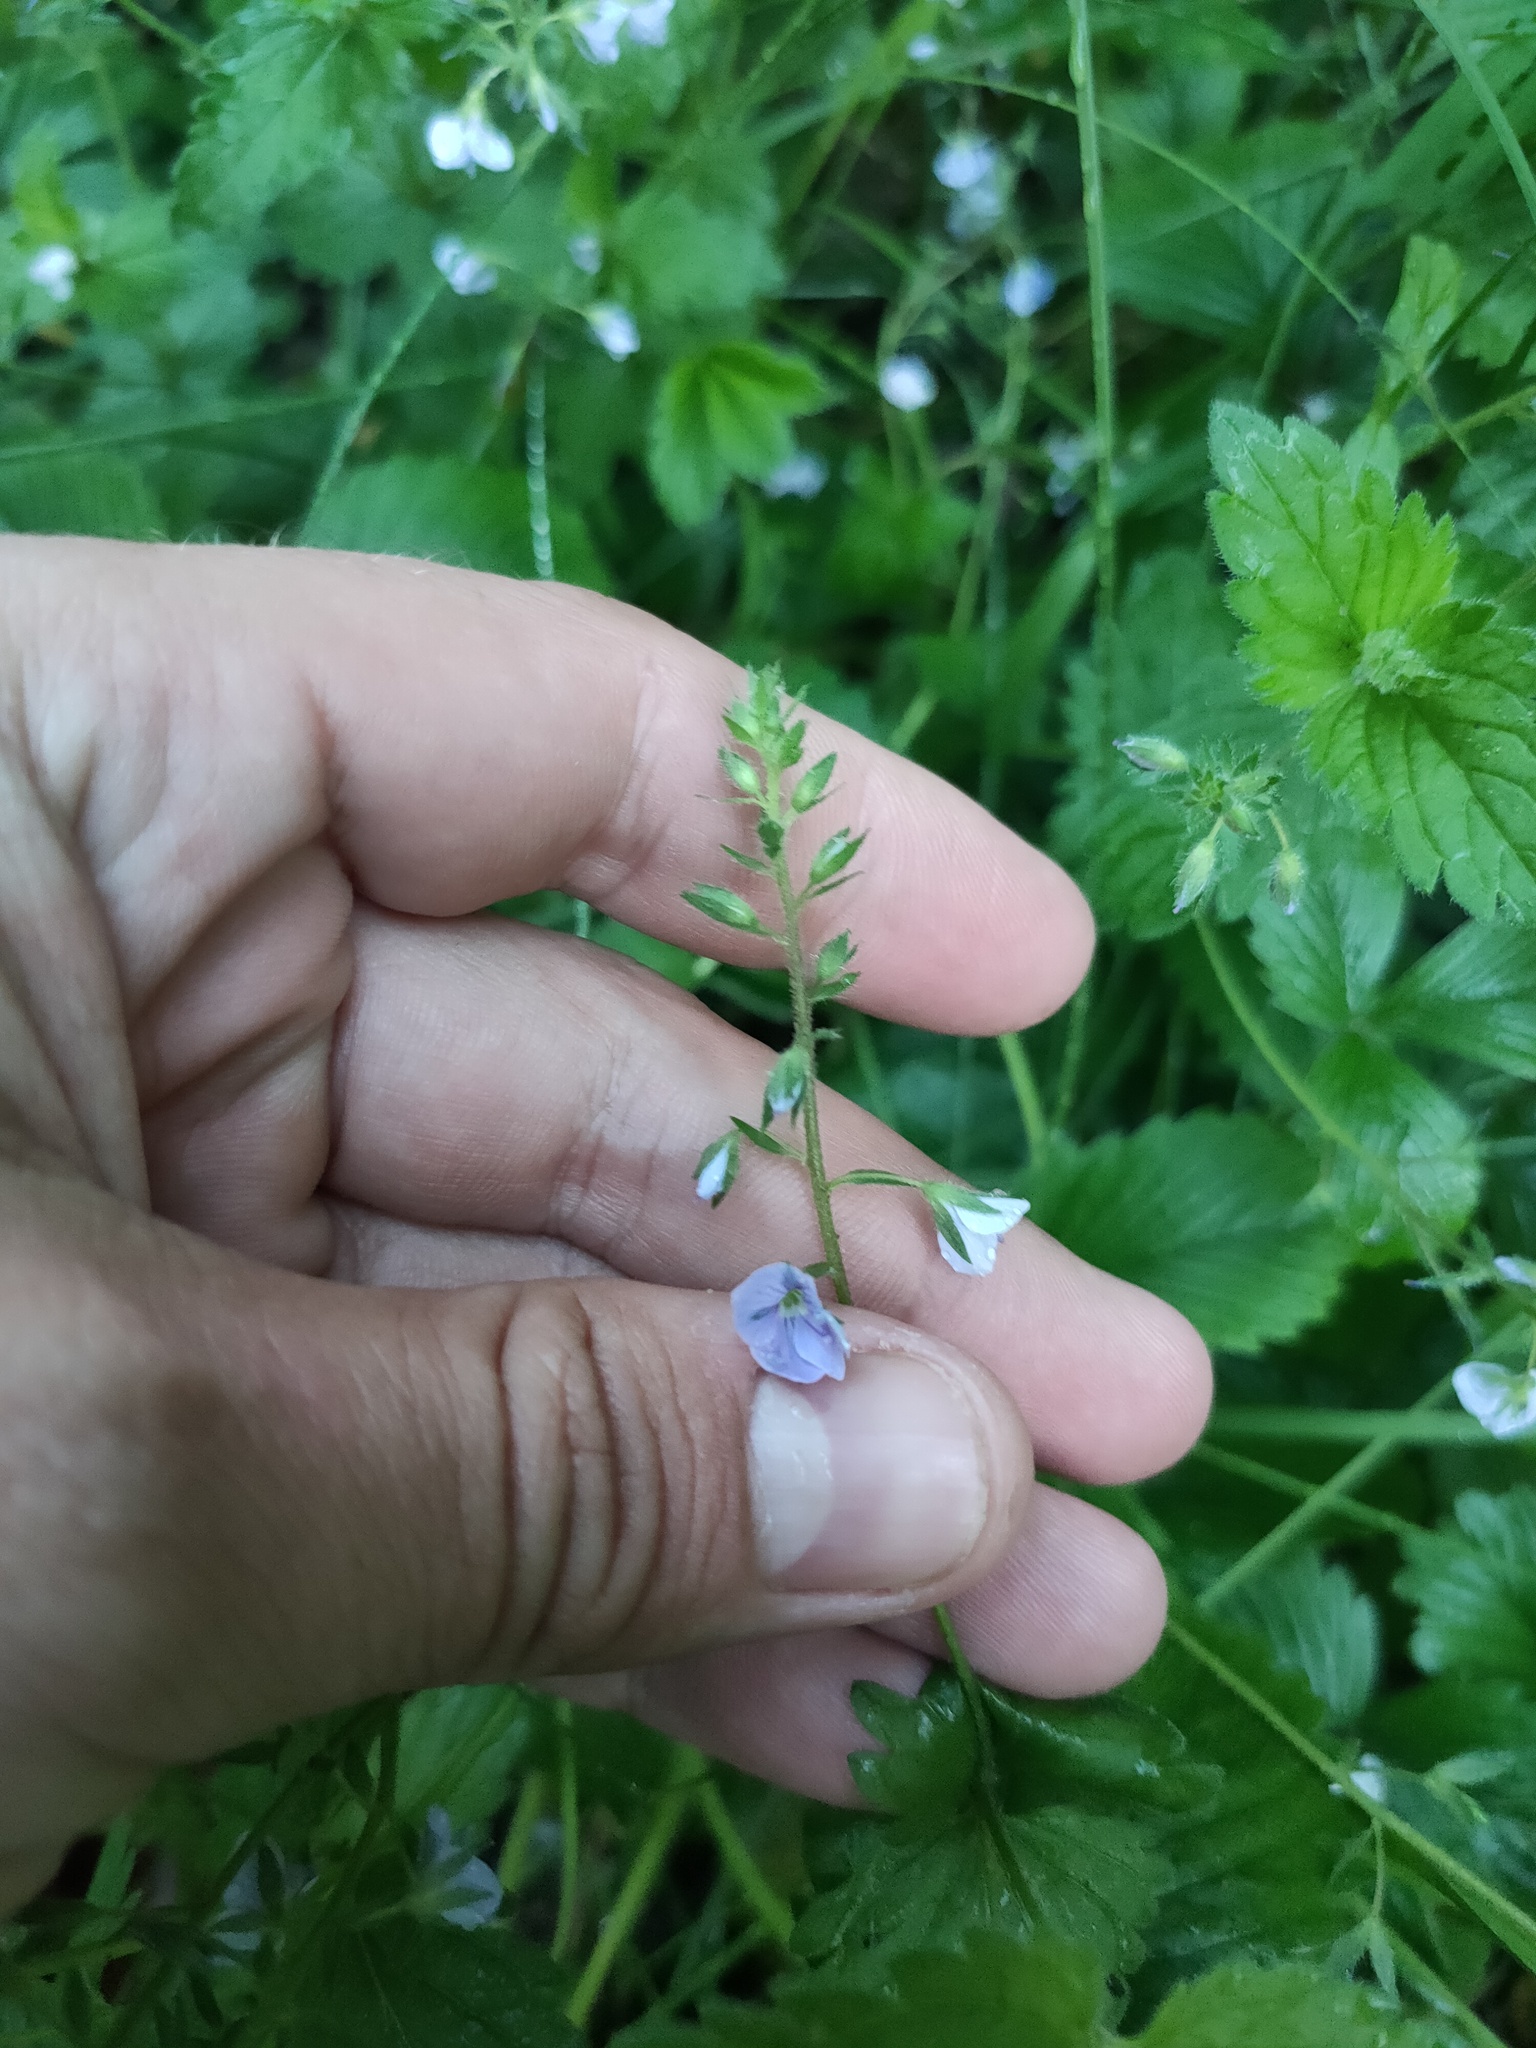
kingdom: Plantae
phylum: Tracheophyta
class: Magnoliopsida
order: Lamiales
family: Plantaginaceae
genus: Veronica
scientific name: Veronica chamaedrys
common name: Germander speedwell
